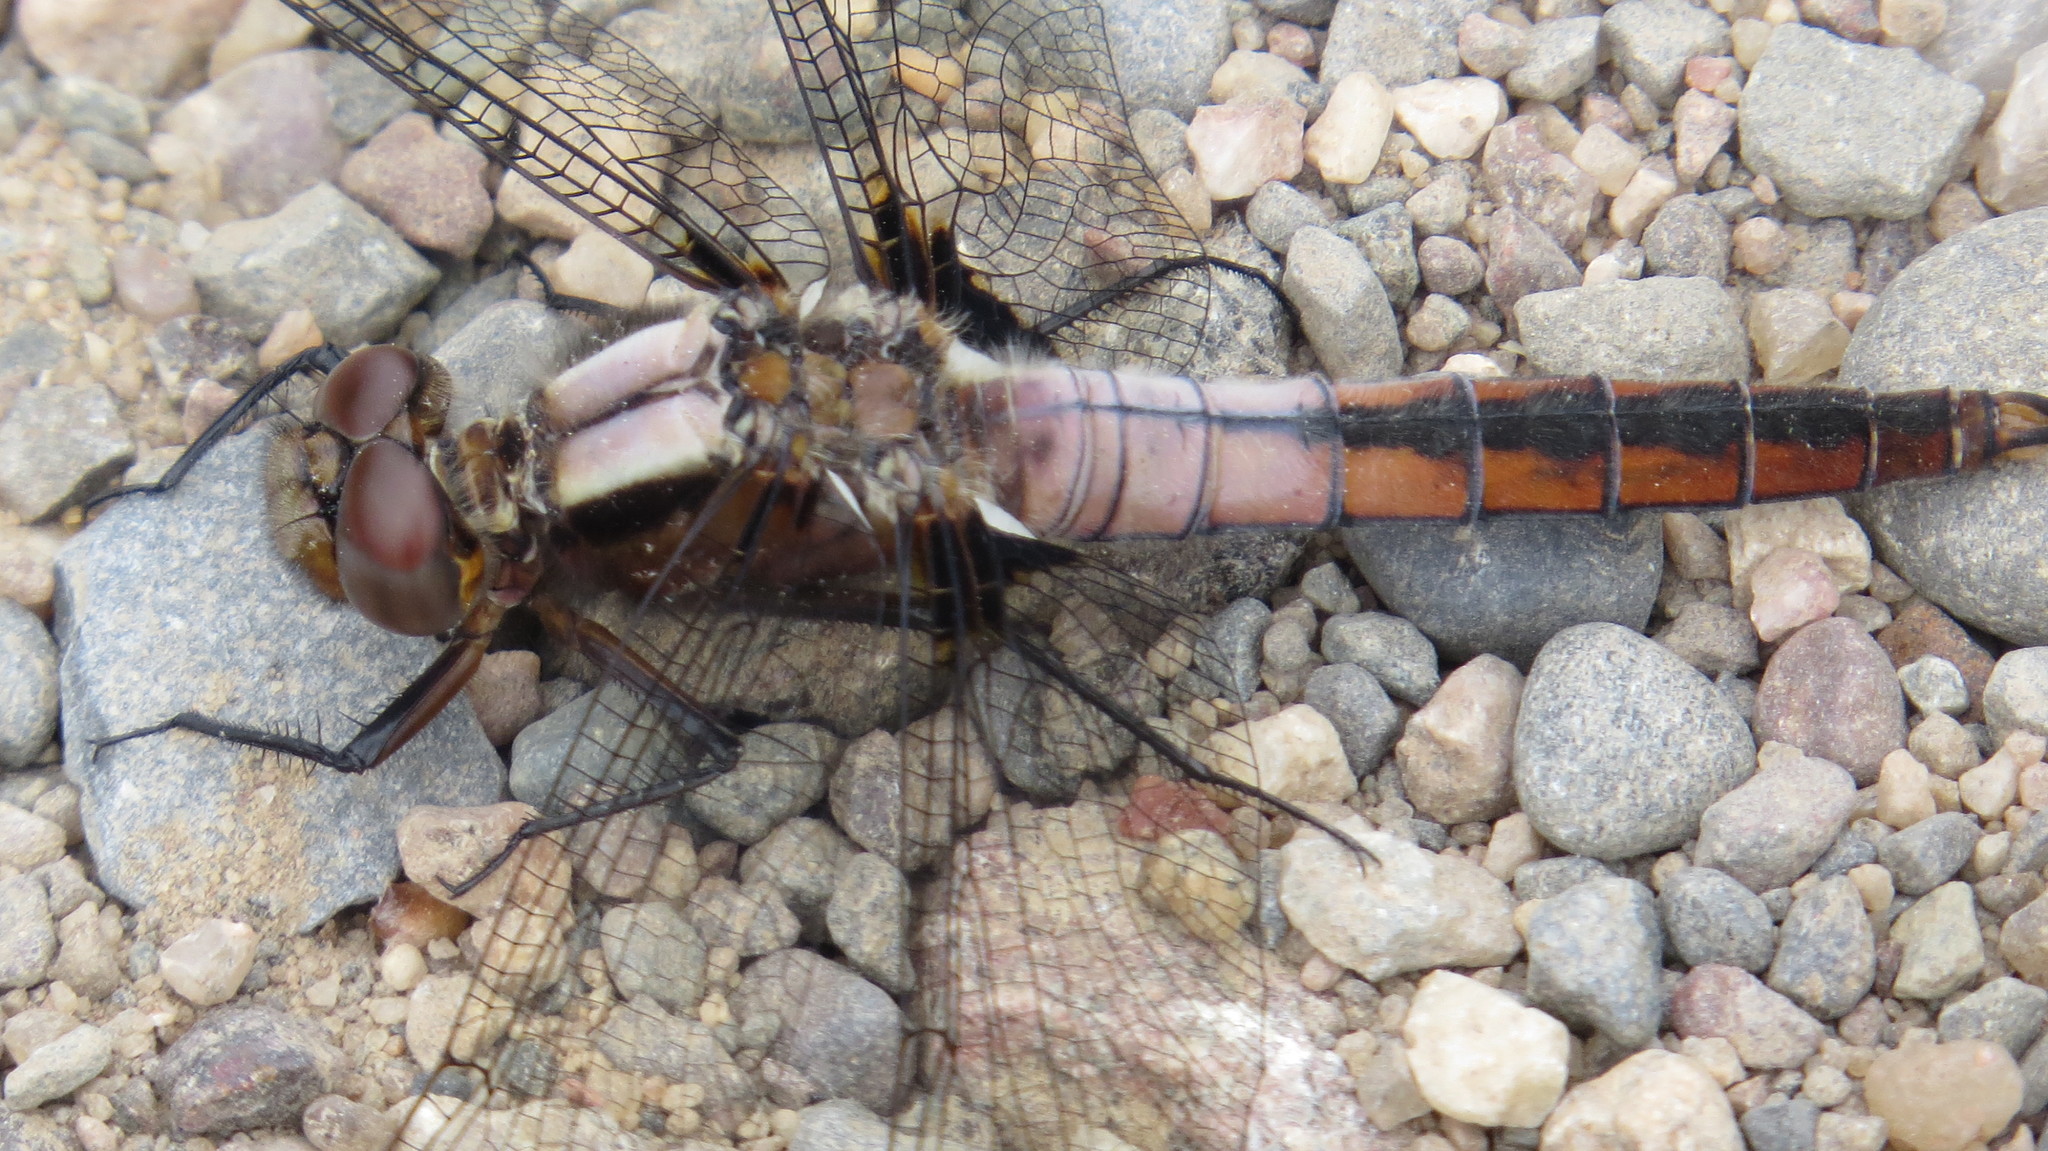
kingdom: Animalia
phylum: Arthropoda
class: Insecta
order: Odonata
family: Libellulidae
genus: Ladona
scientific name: Ladona julia
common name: Chalk-fronted corporal
